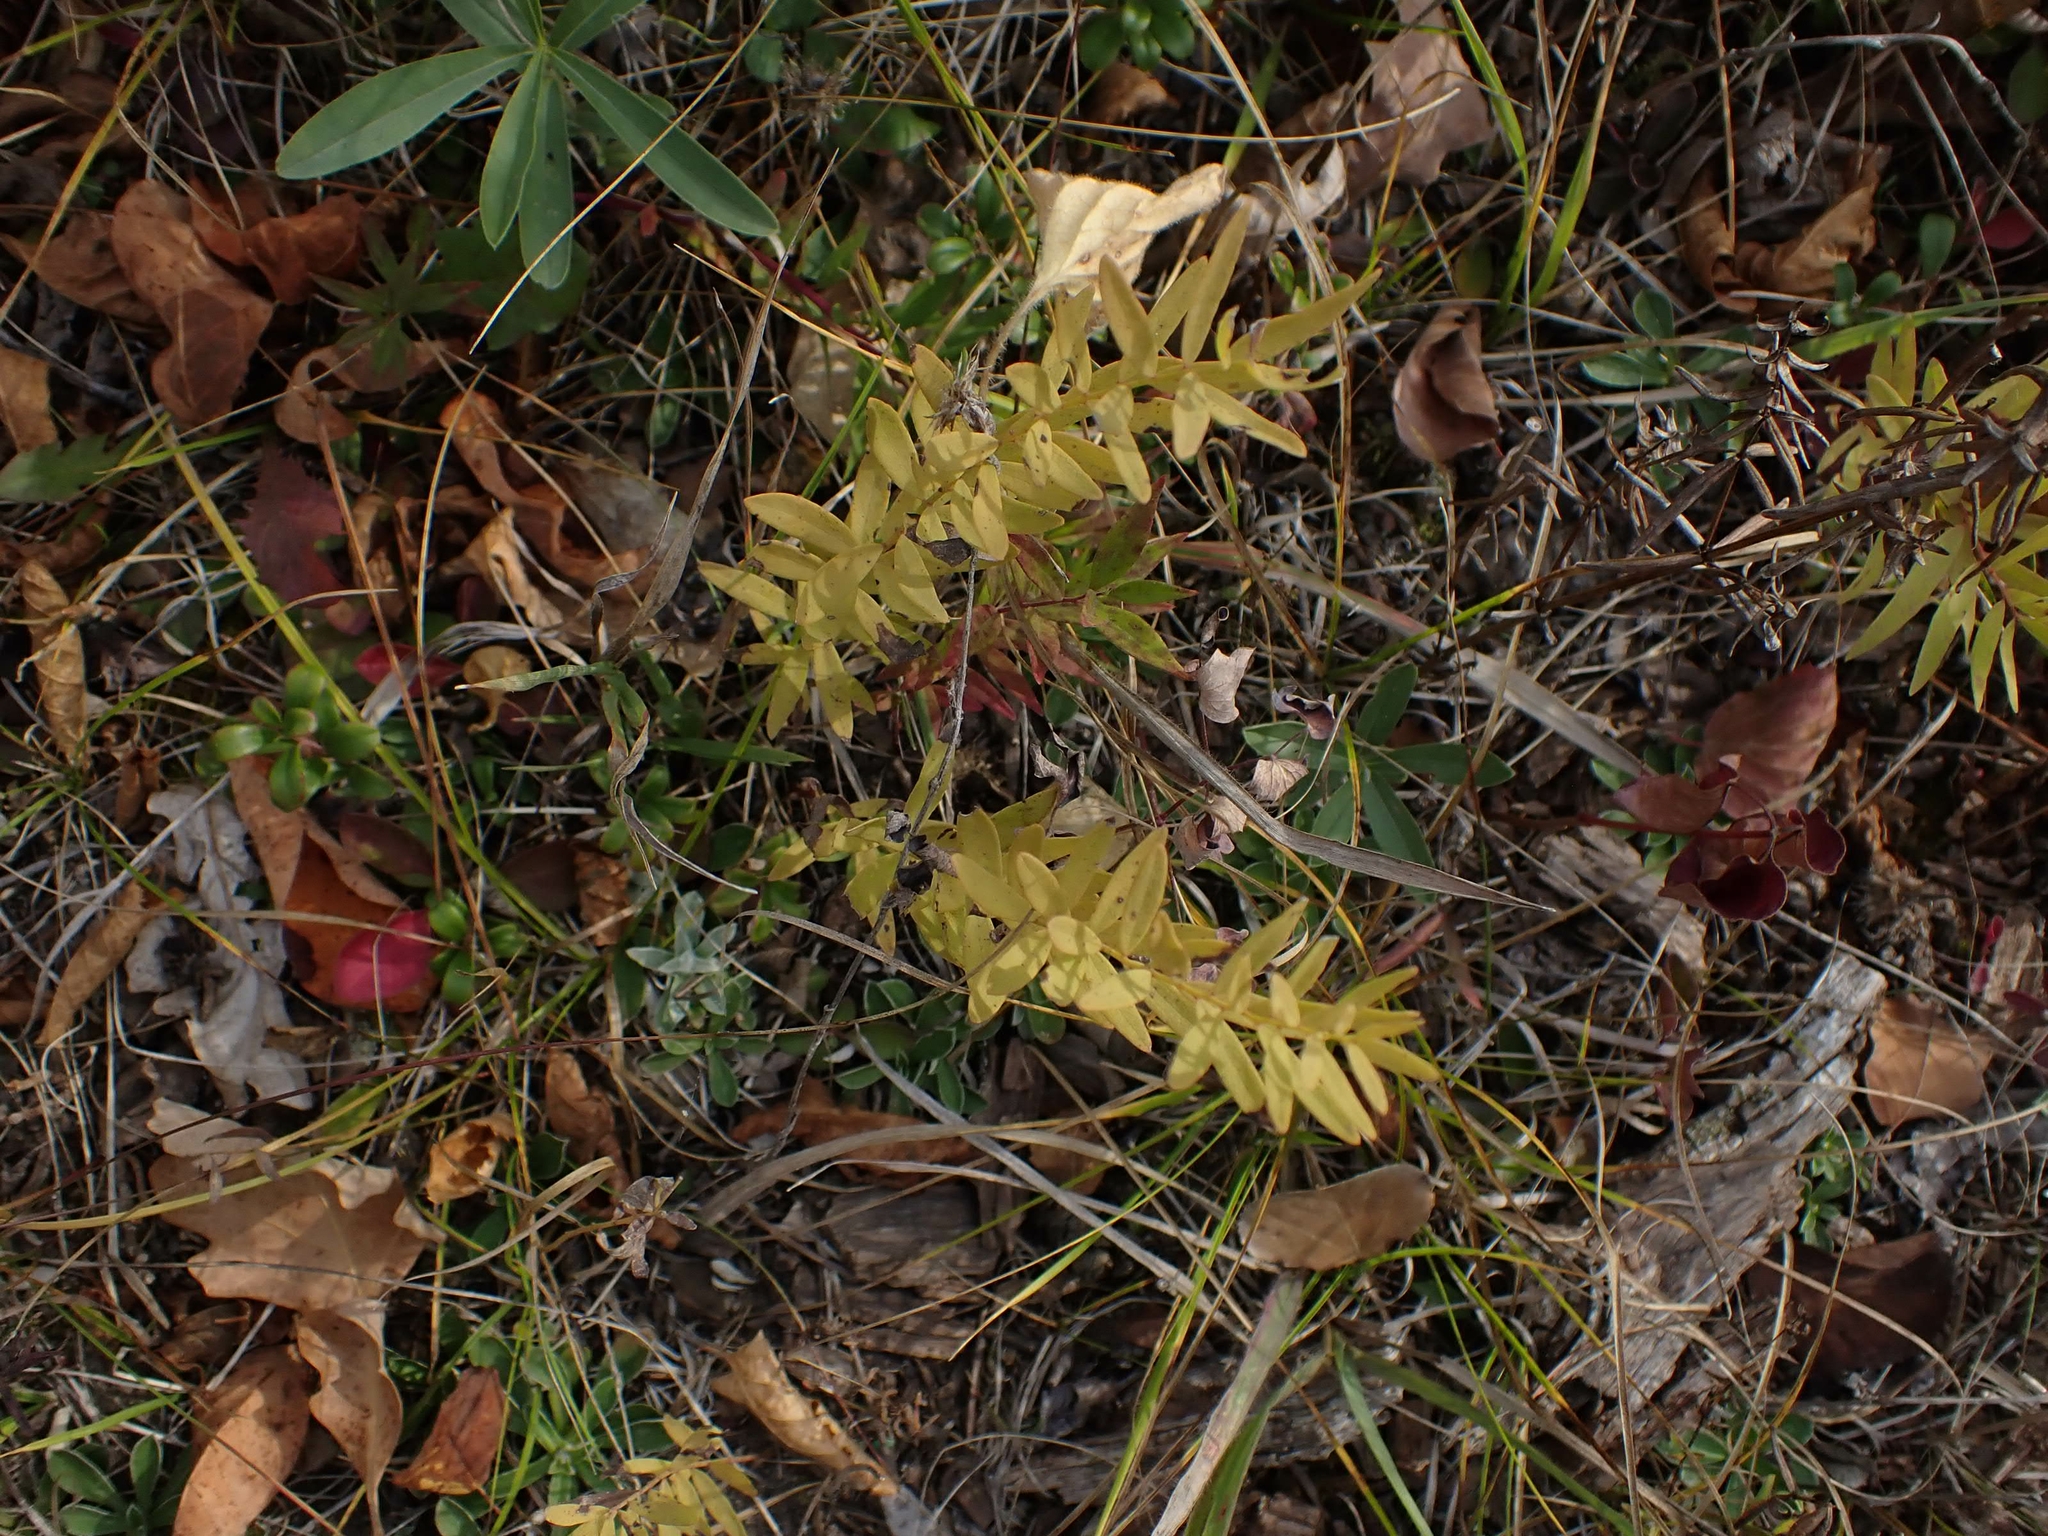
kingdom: Plantae
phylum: Tracheophyta
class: Magnoliopsida
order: Santalales
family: Comandraceae
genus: Comandra
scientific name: Comandra umbellata
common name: Bastard toadflax
